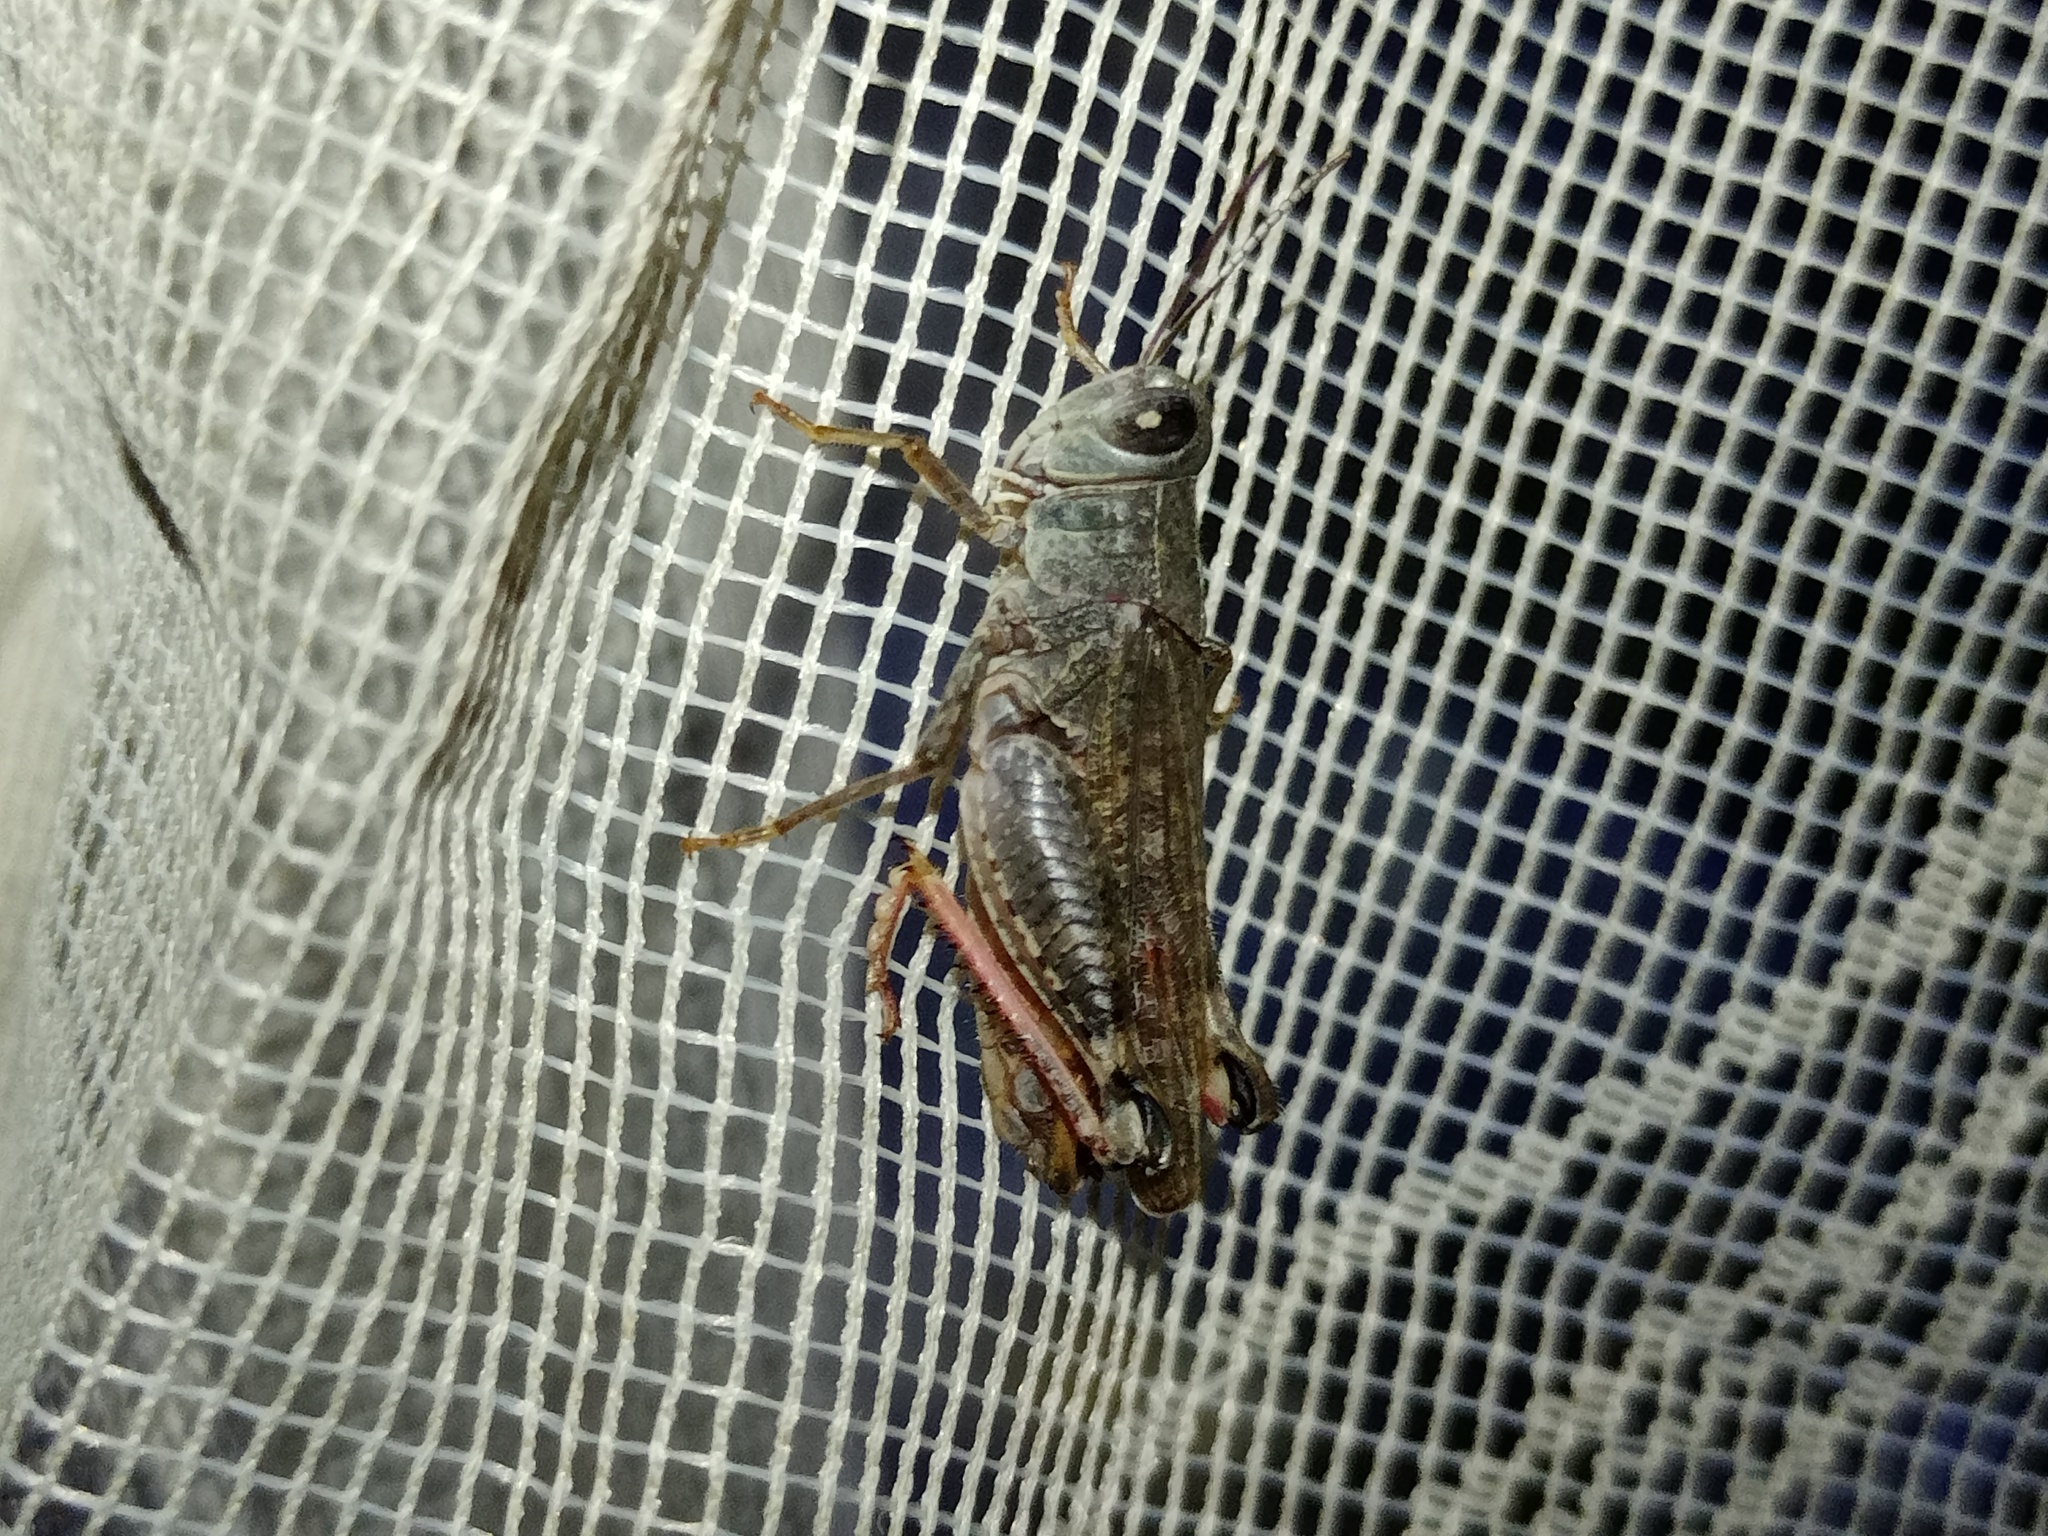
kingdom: Animalia
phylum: Arthropoda
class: Insecta
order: Orthoptera
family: Acrididae
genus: Calliptamus
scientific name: Calliptamus italicus
